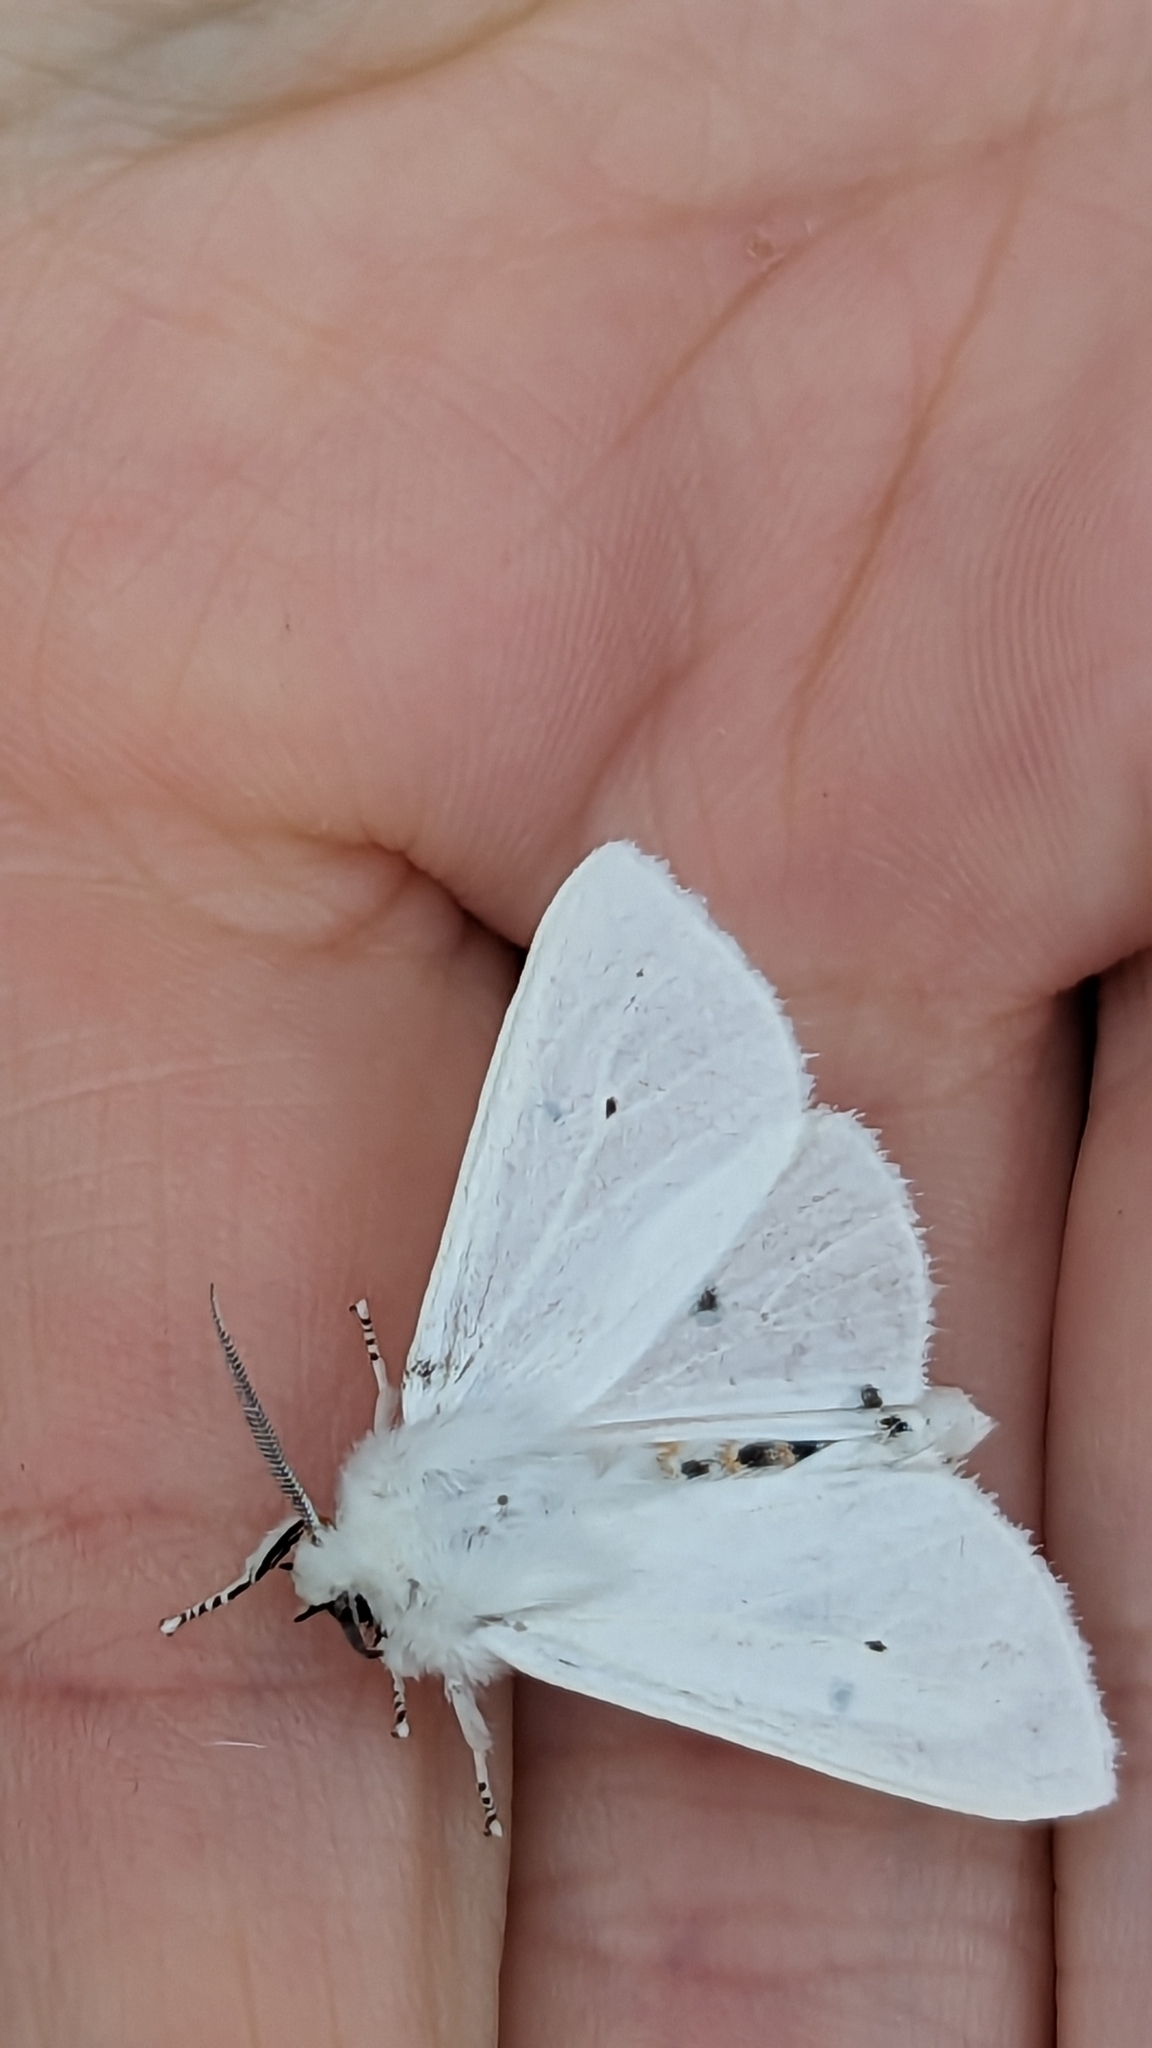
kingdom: Animalia
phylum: Arthropoda
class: Insecta
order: Lepidoptera
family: Erebidae
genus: Spilosoma
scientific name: Spilosoma virginica
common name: Virginia tiger moth
